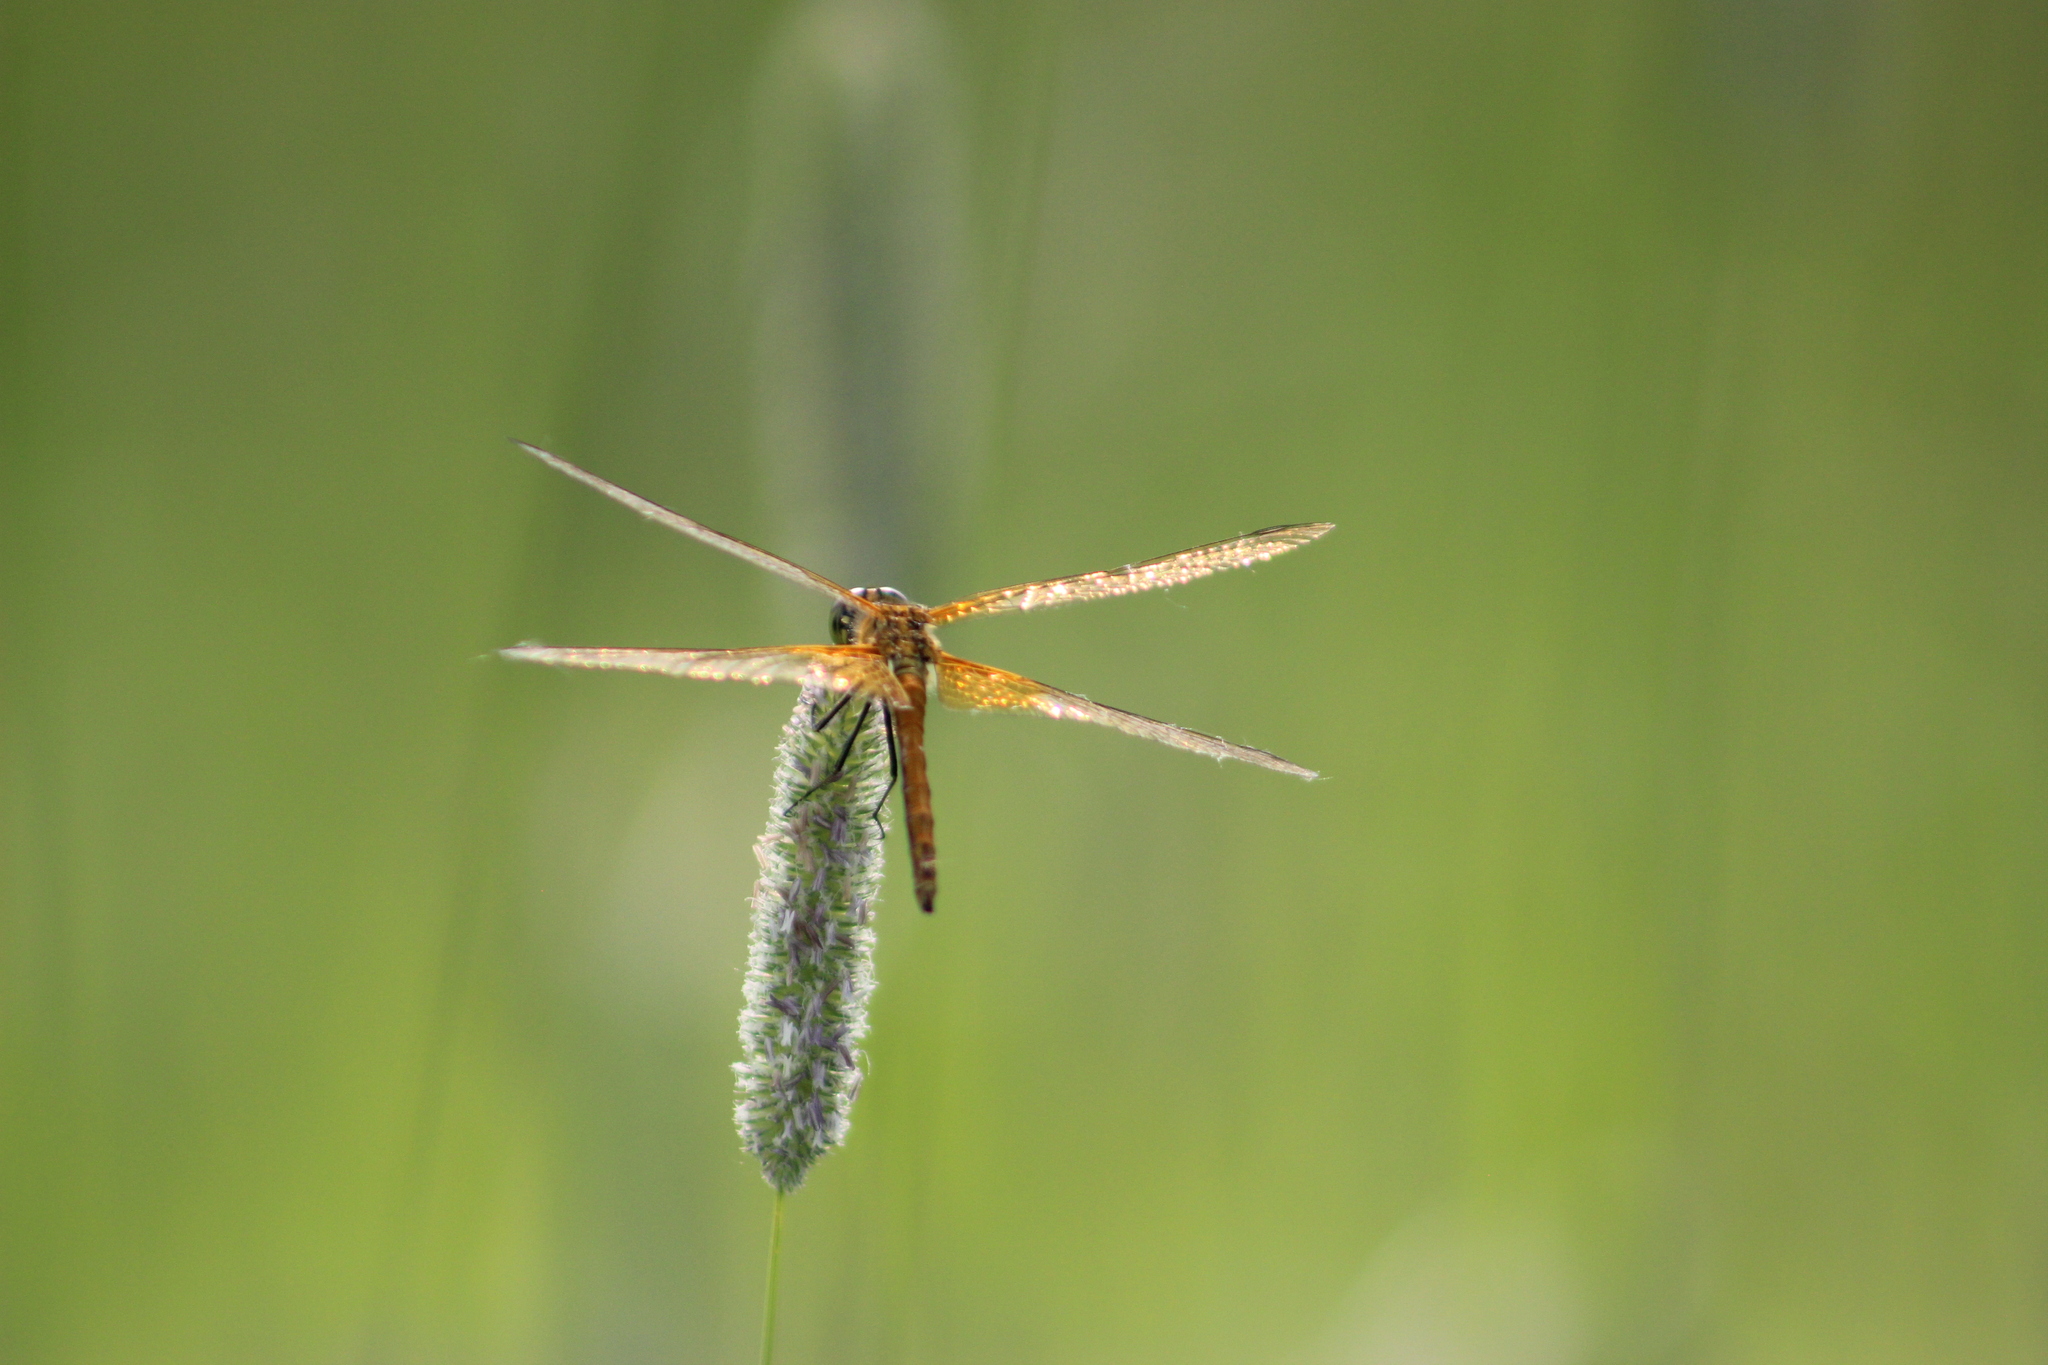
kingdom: Animalia
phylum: Arthropoda
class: Insecta
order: Odonata
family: Libellulidae
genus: Sympetrum
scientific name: Sympetrum flaveolum
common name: Yellow-winged darter
